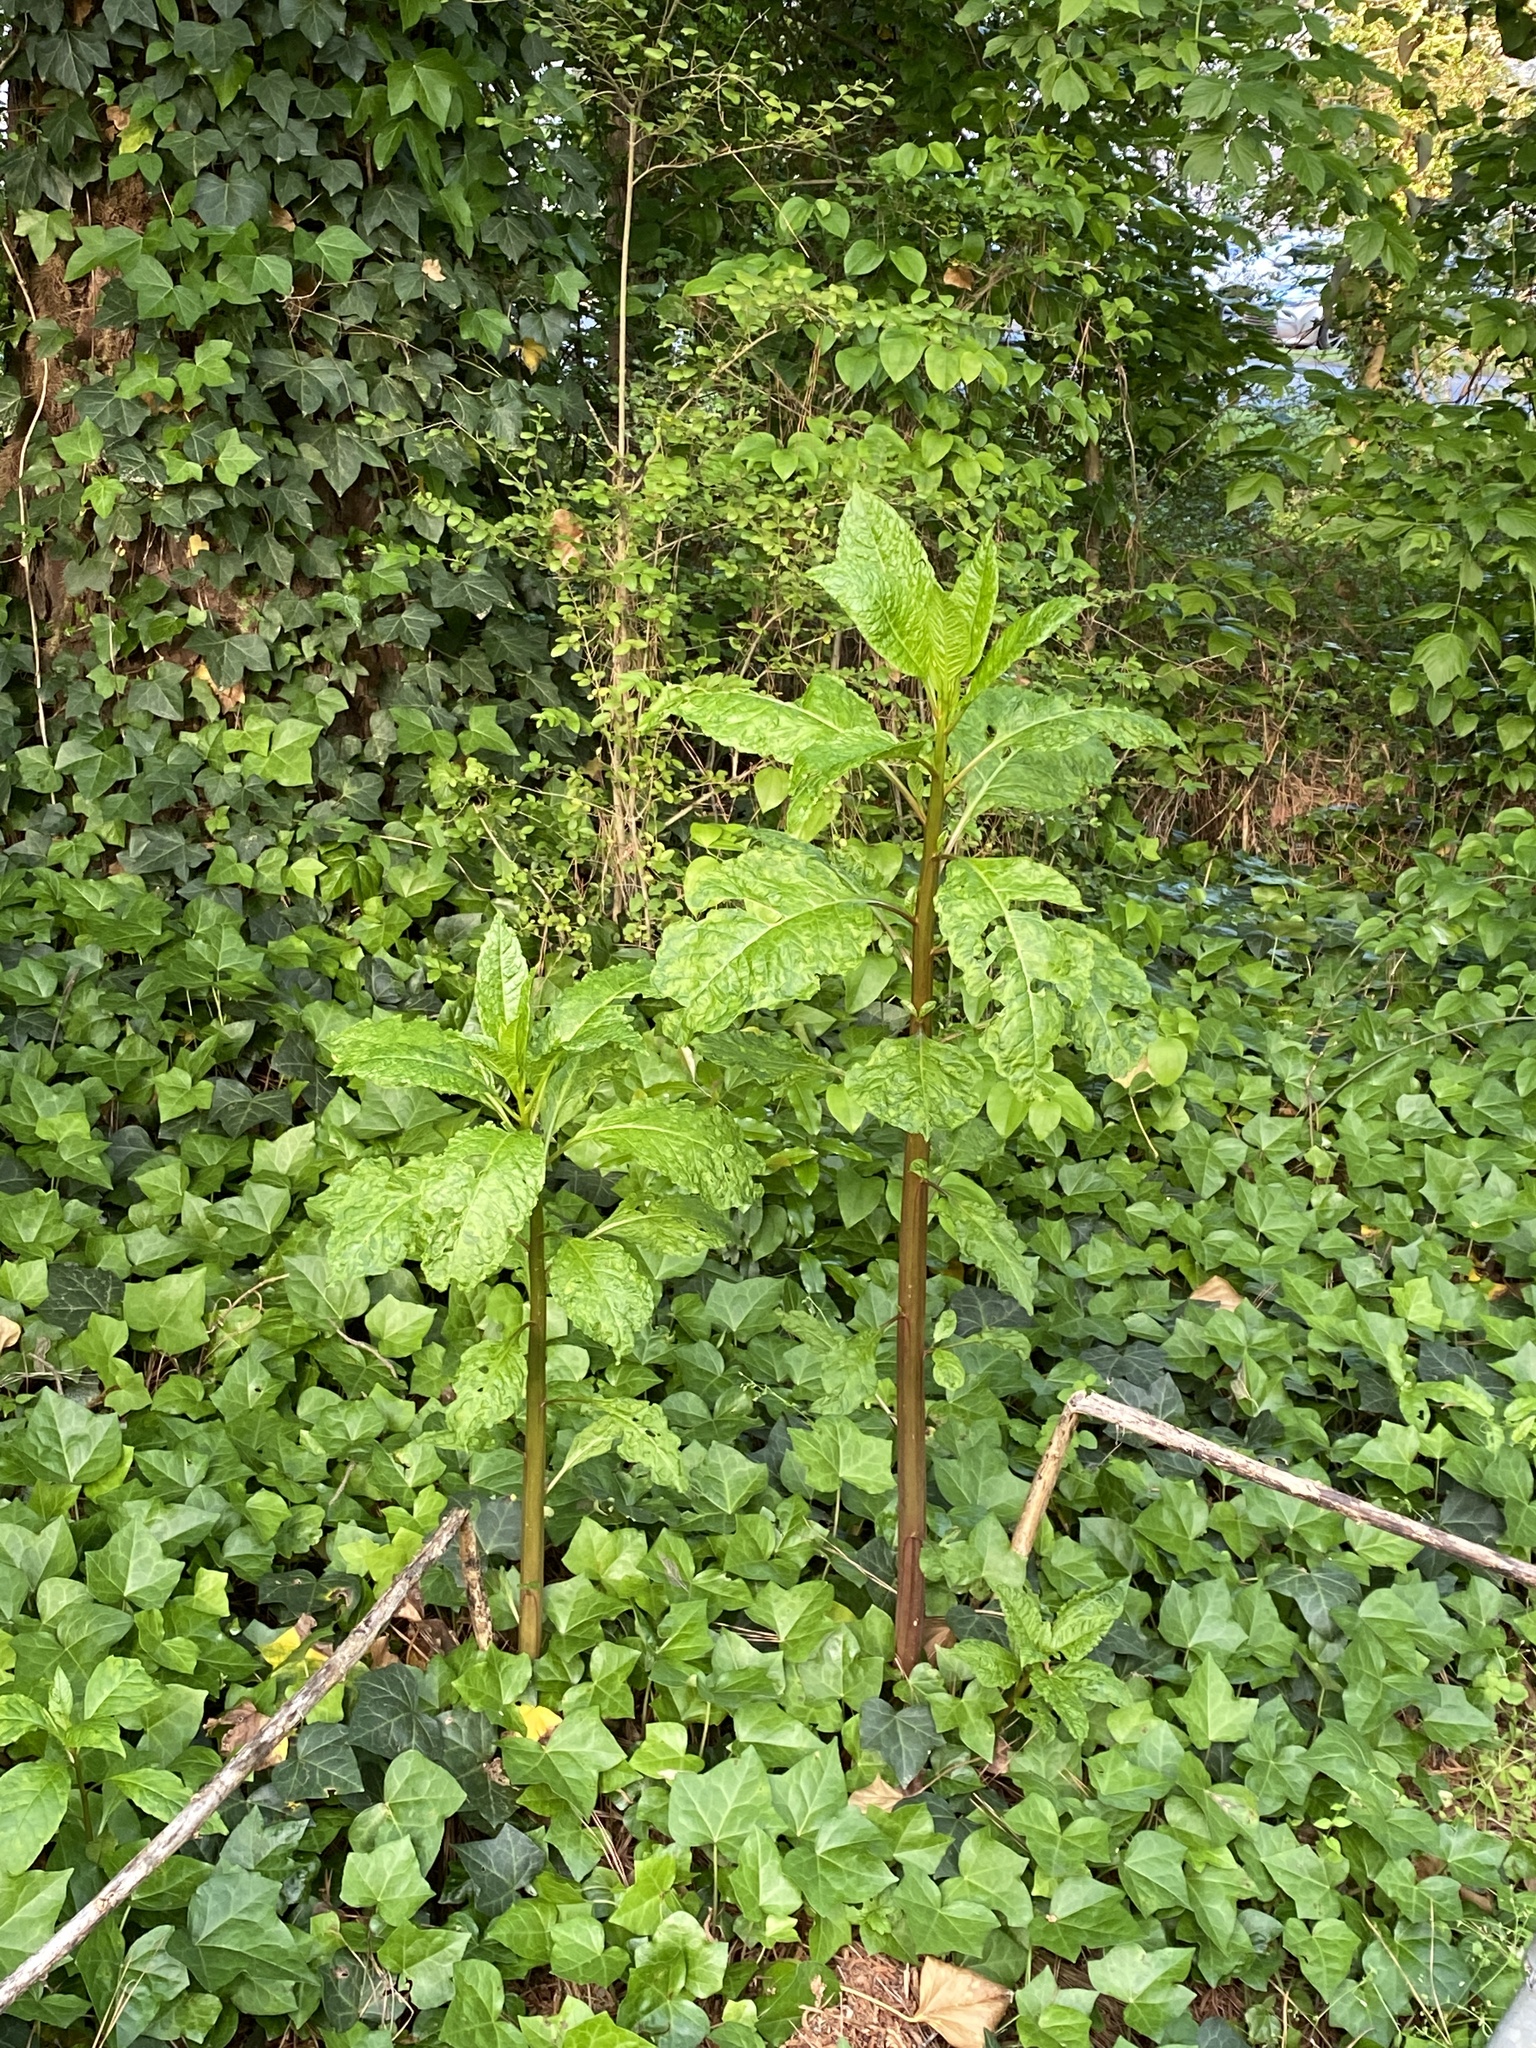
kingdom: Plantae
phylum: Tracheophyta
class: Magnoliopsida
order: Caryophyllales
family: Phytolaccaceae
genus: Phytolacca
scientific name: Phytolacca americana
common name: American pokeweed
